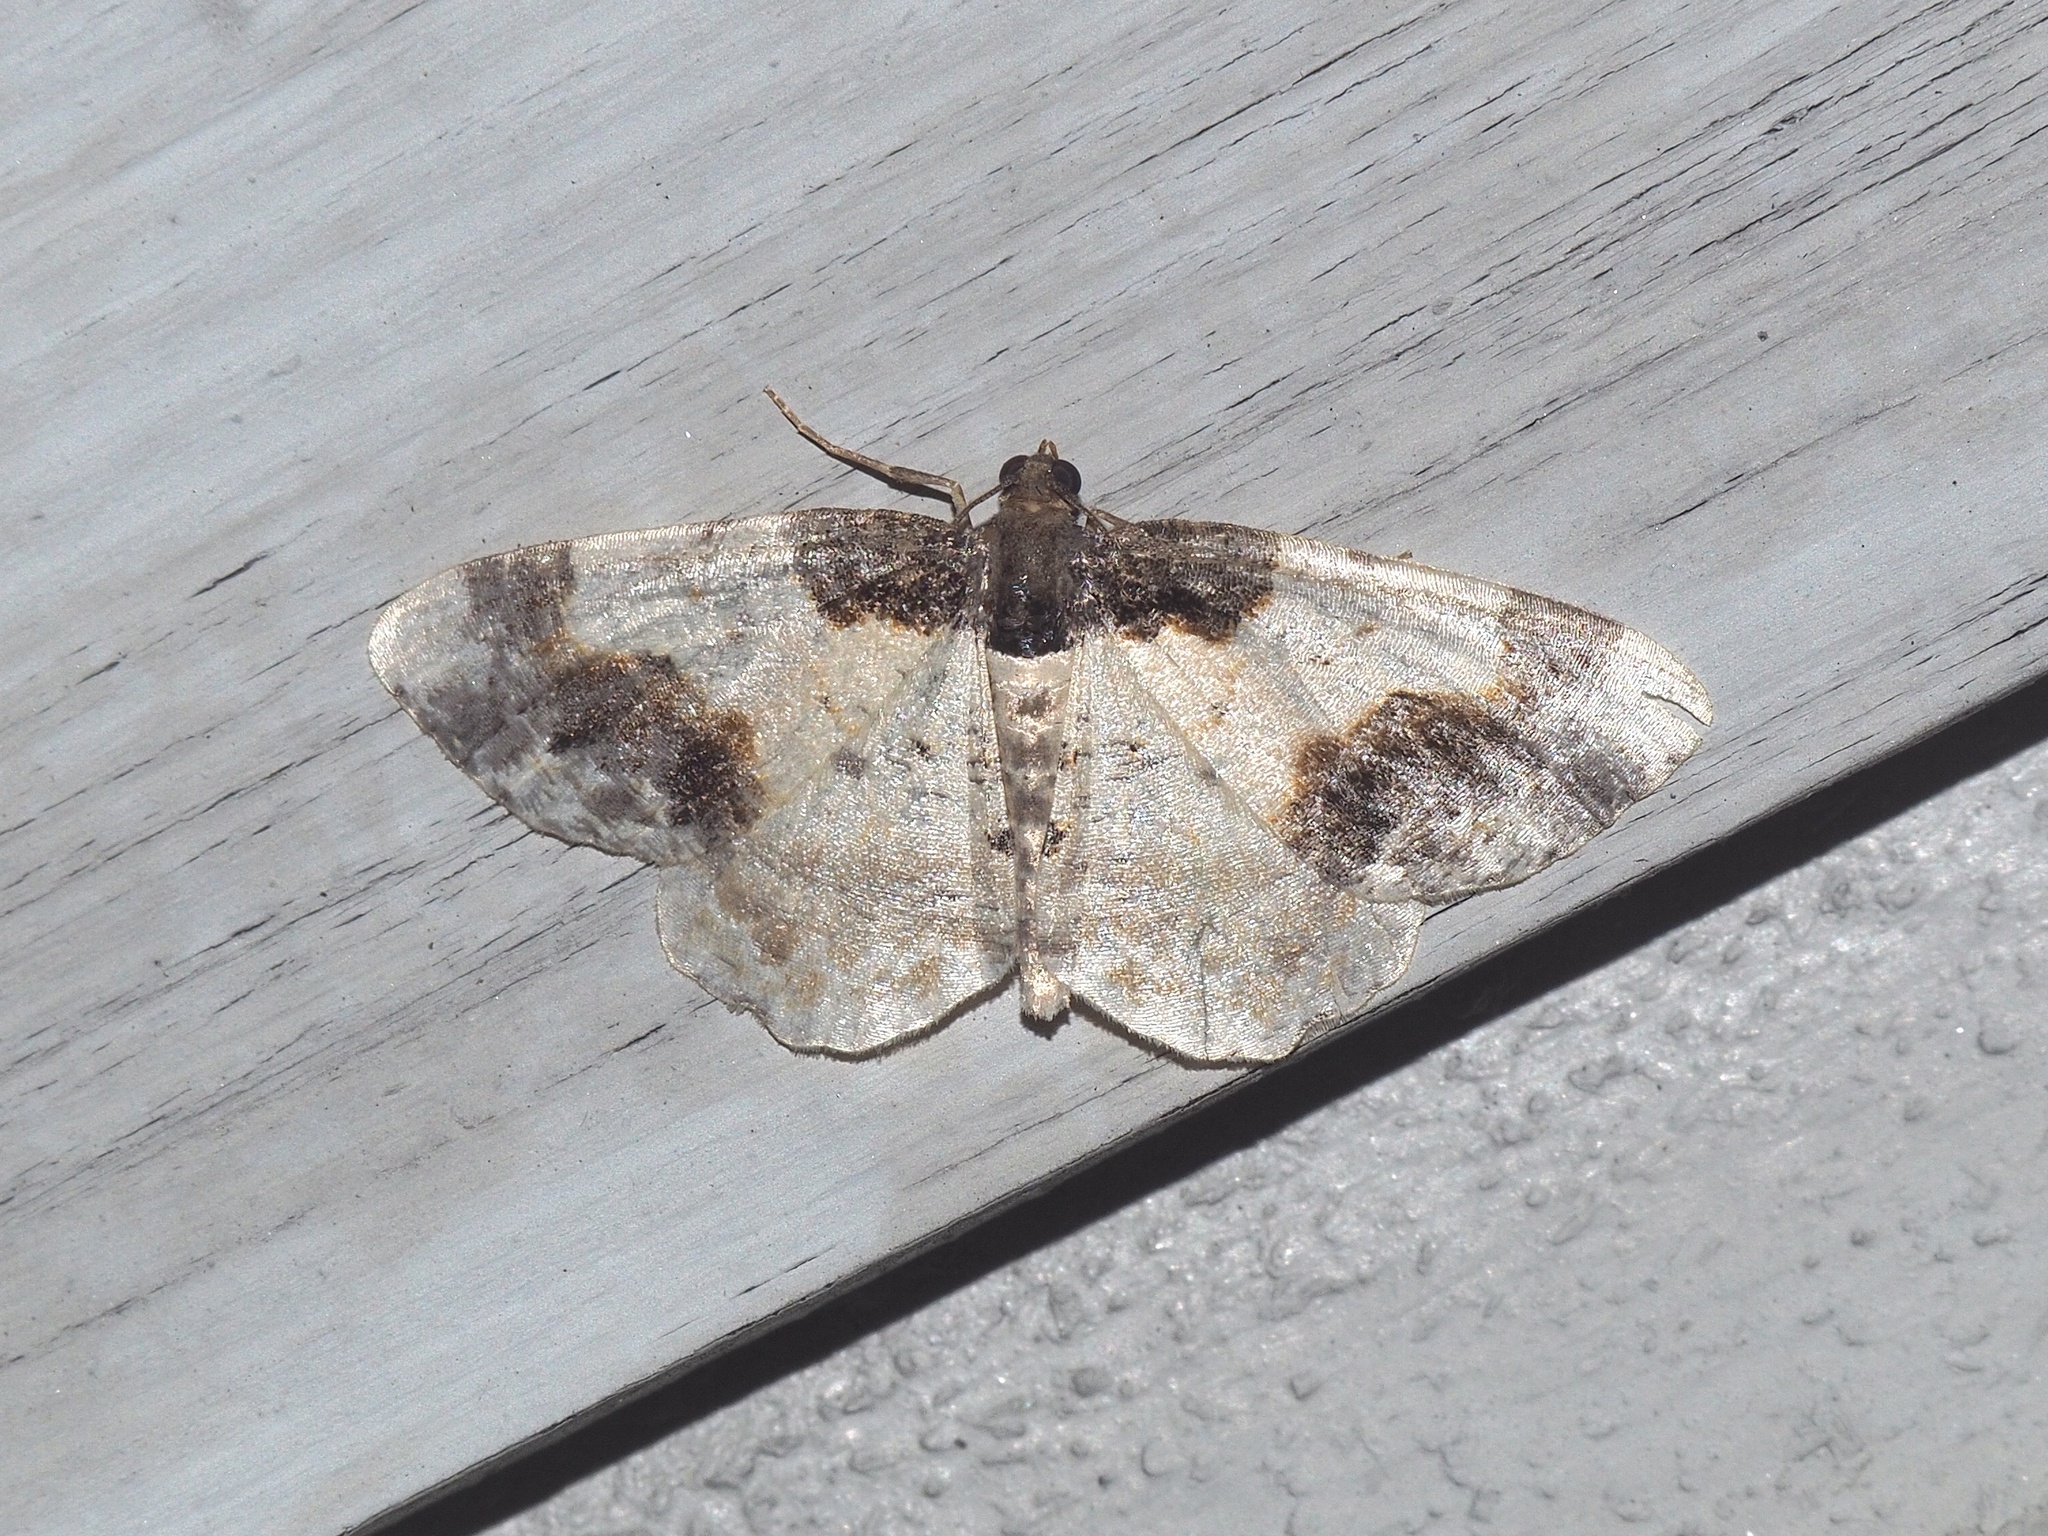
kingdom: Animalia
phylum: Arthropoda
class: Insecta
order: Lepidoptera
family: Geometridae
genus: Ligdia
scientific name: Ligdia adustata
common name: Scorched carpet
